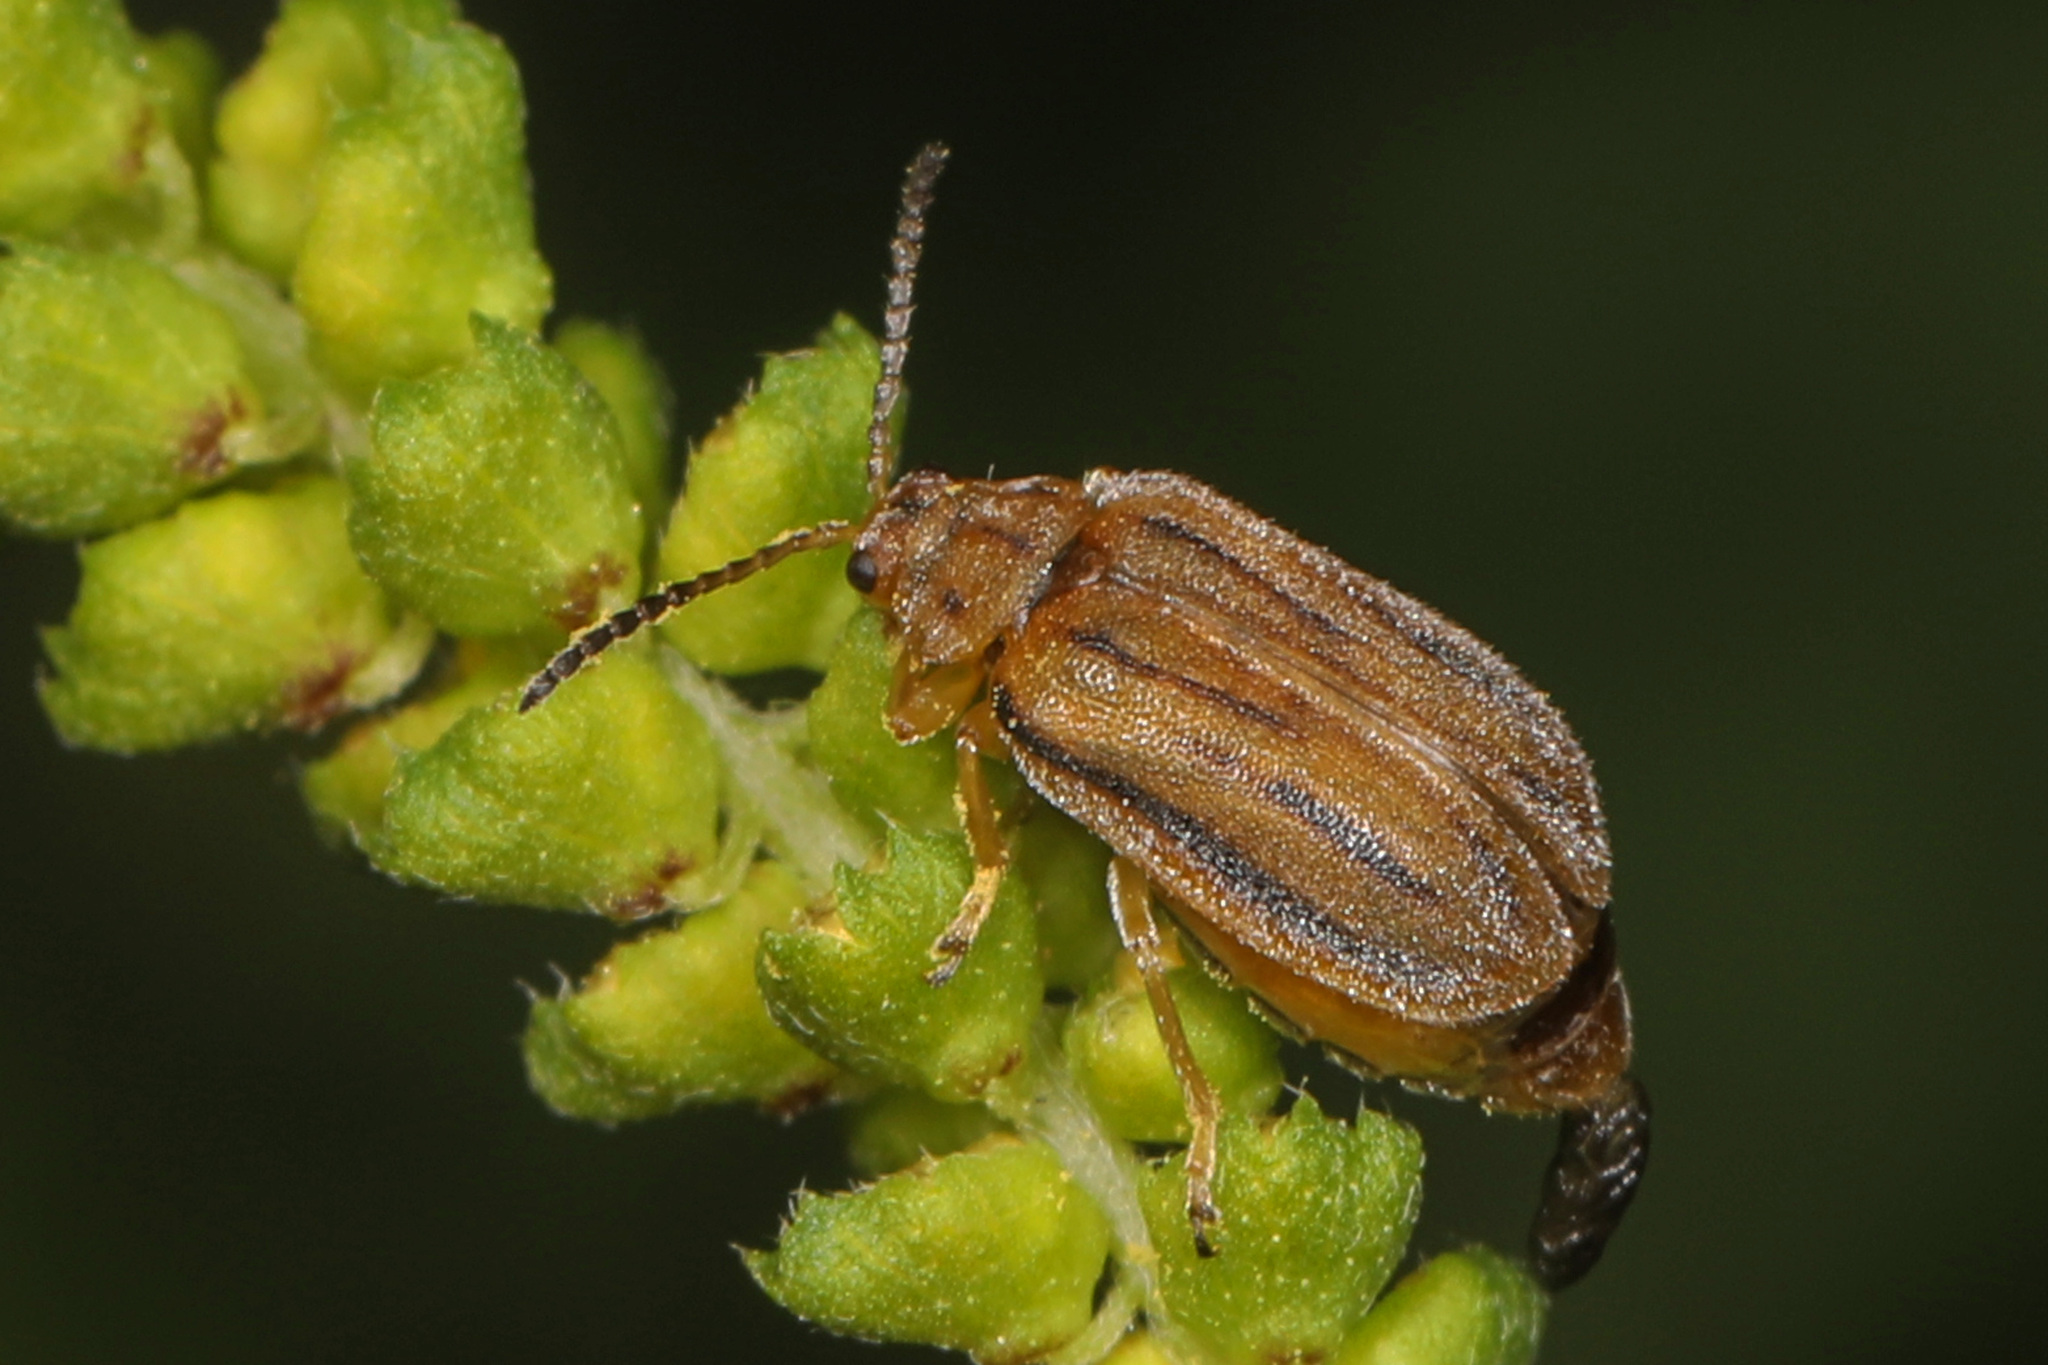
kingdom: Animalia
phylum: Arthropoda
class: Insecta
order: Coleoptera
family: Chrysomelidae
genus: Ophraella
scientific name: Ophraella communa
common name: Ragweed leaf beetle
